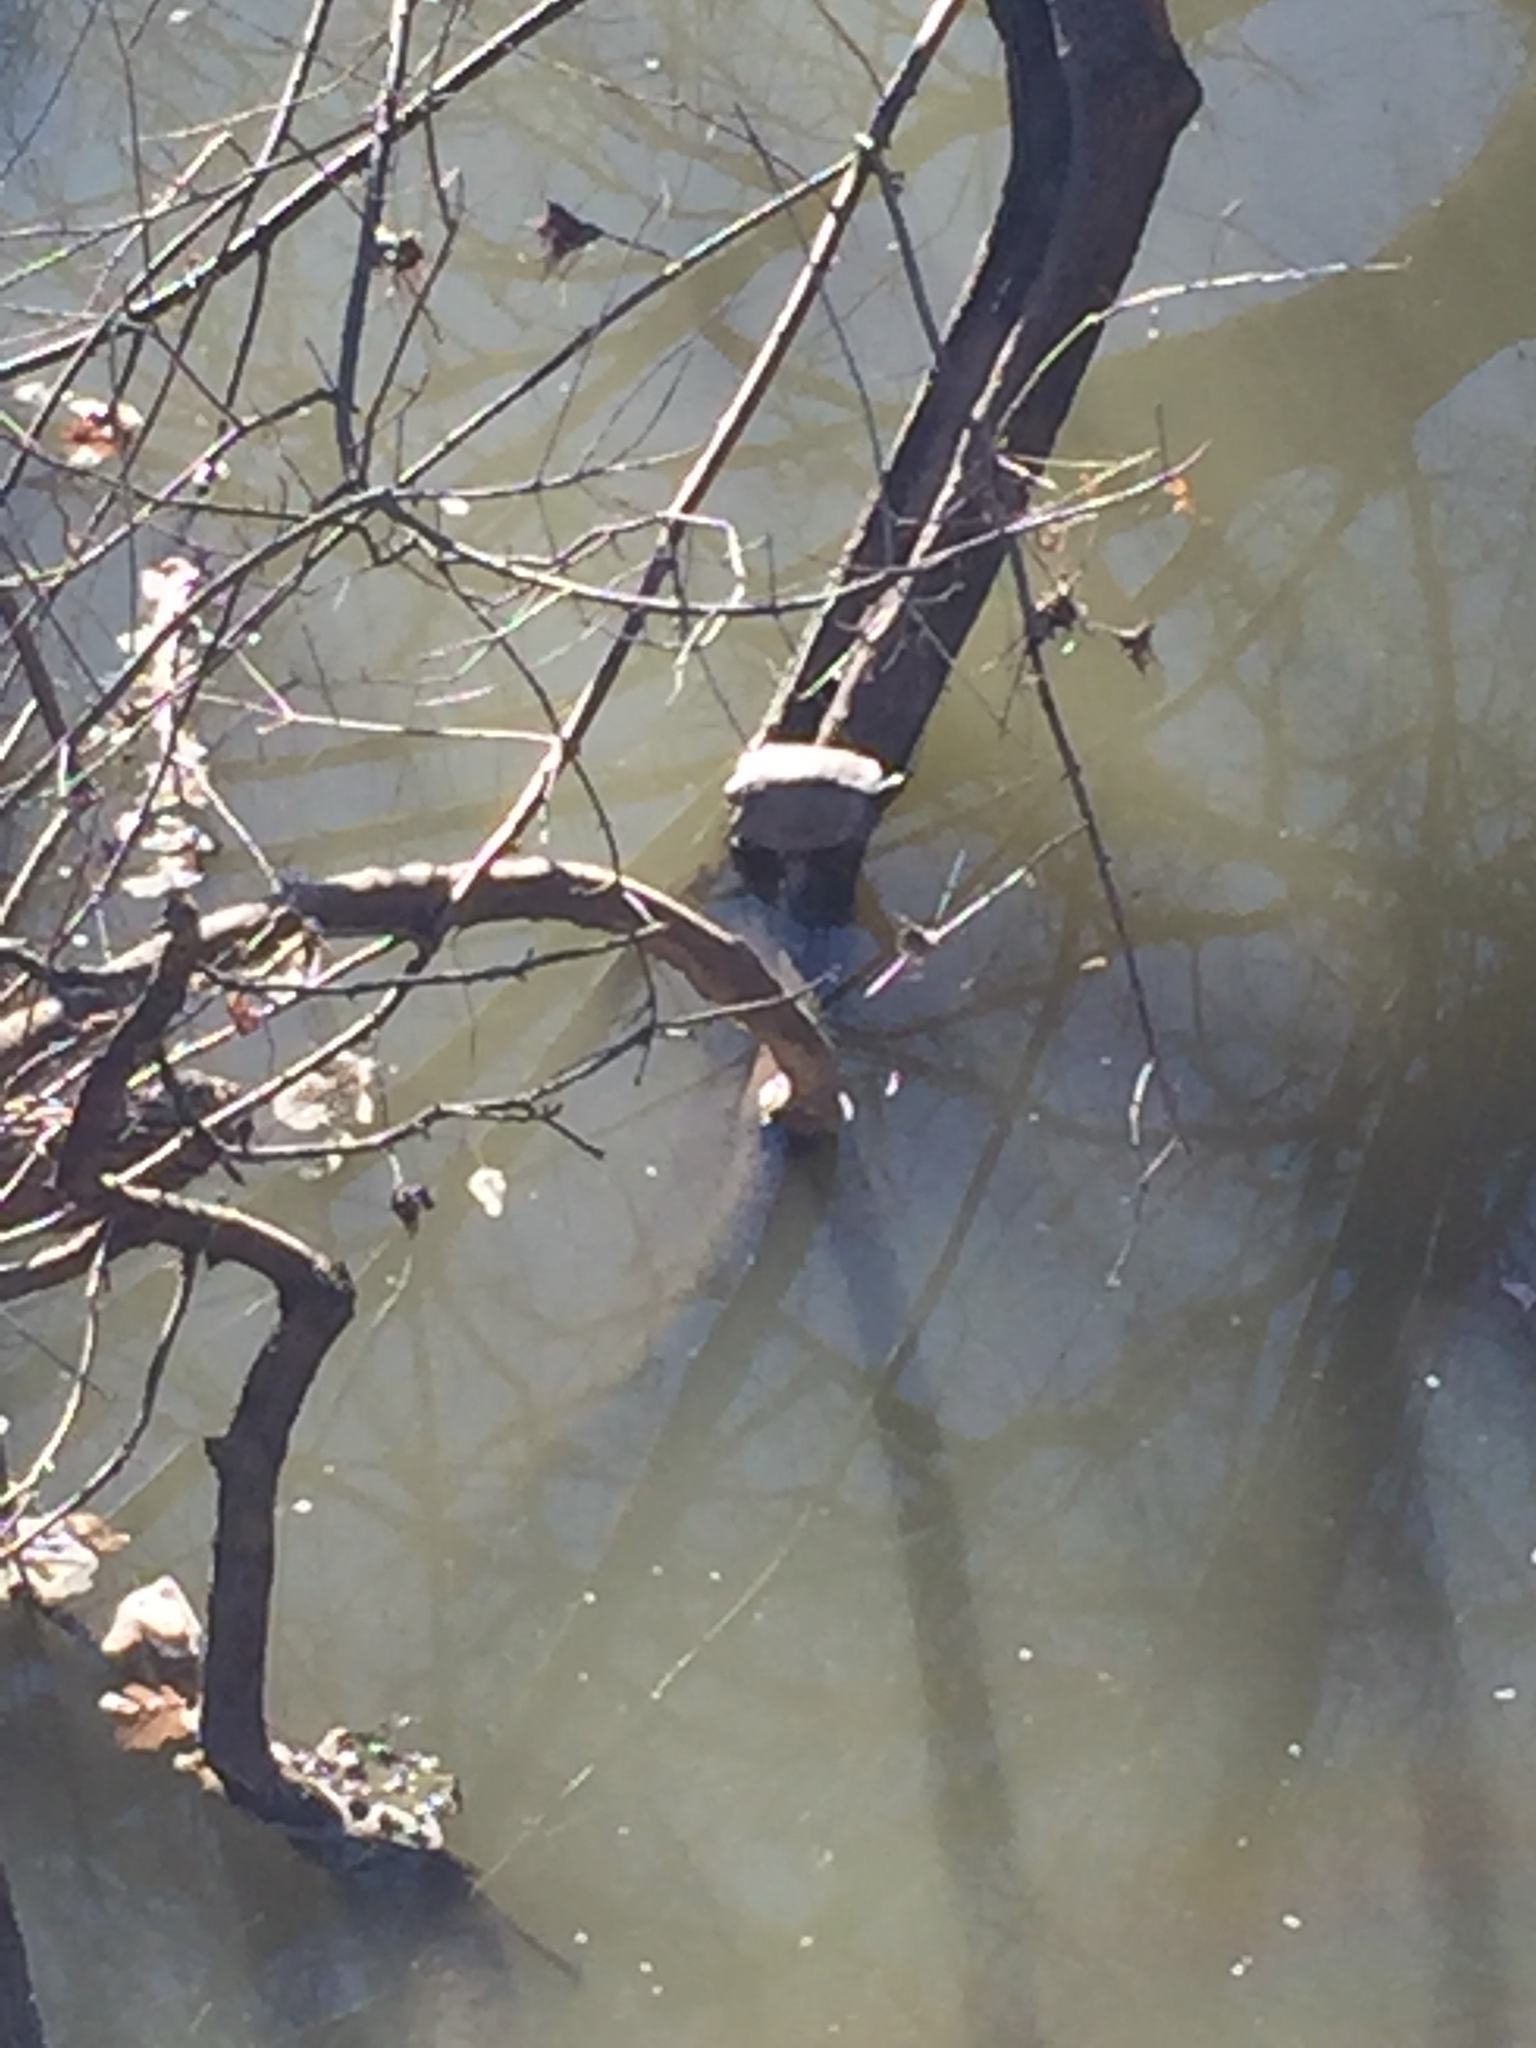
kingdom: Animalia
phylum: Chordata
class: Testudines
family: Emydidae
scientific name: Emydidae
